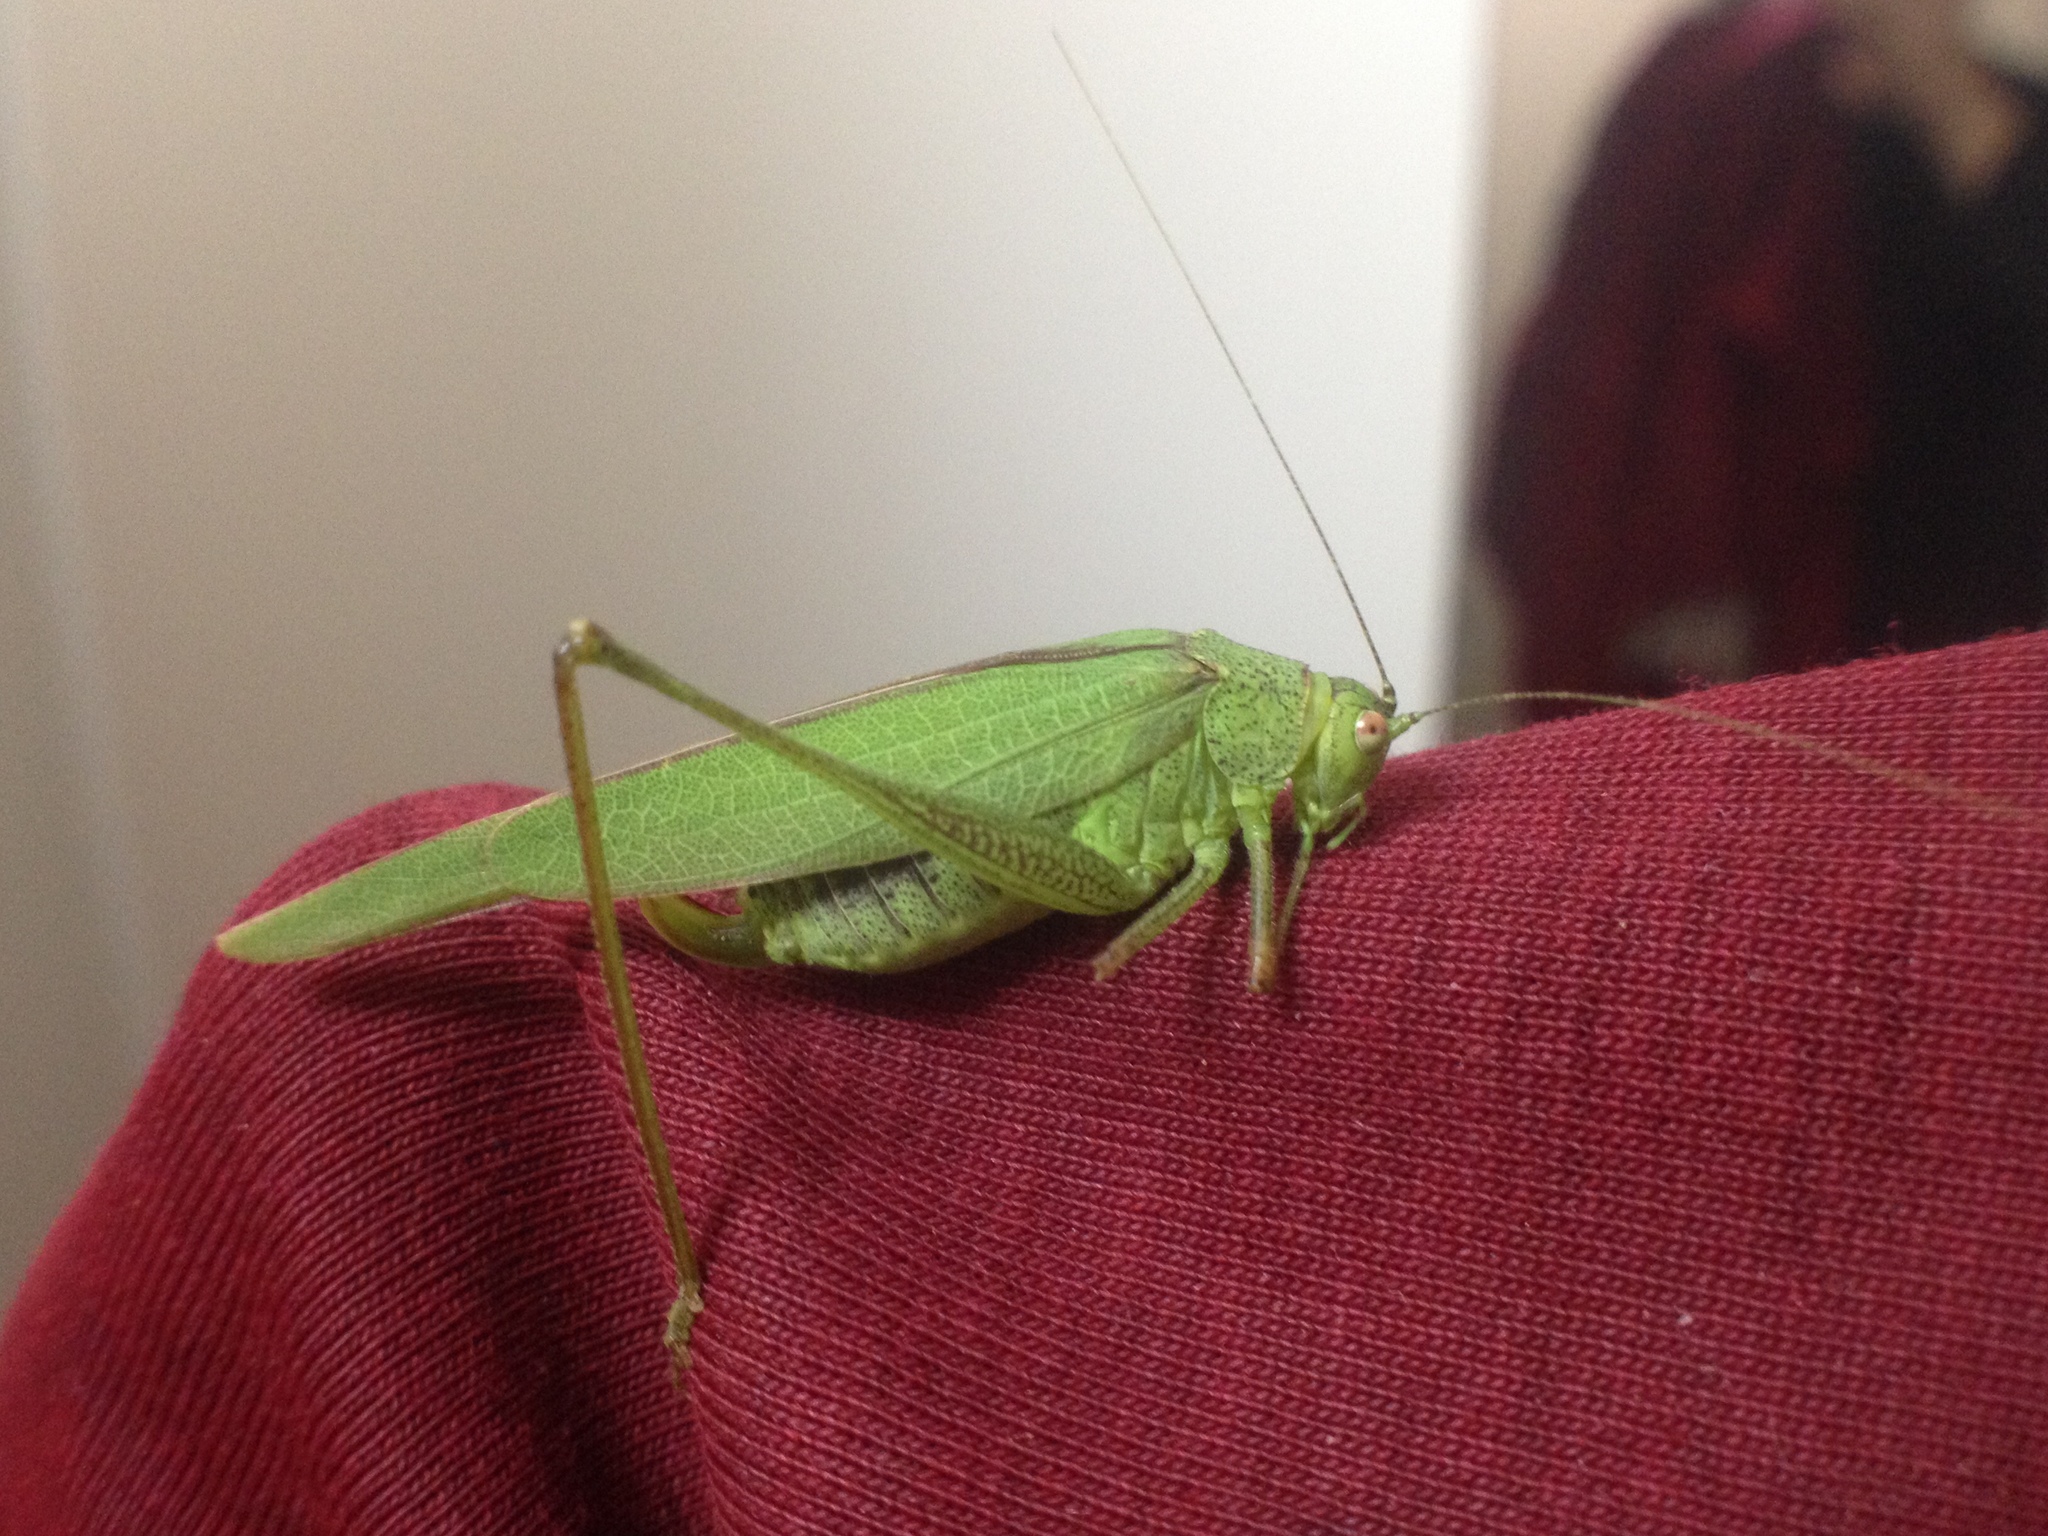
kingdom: Animalia
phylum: Arthropoda
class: Insecta
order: Orthoptera
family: Tettigoniidae
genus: Phaneroptera
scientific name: Phaneroptera nana
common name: Southern sickle bush-cricket
